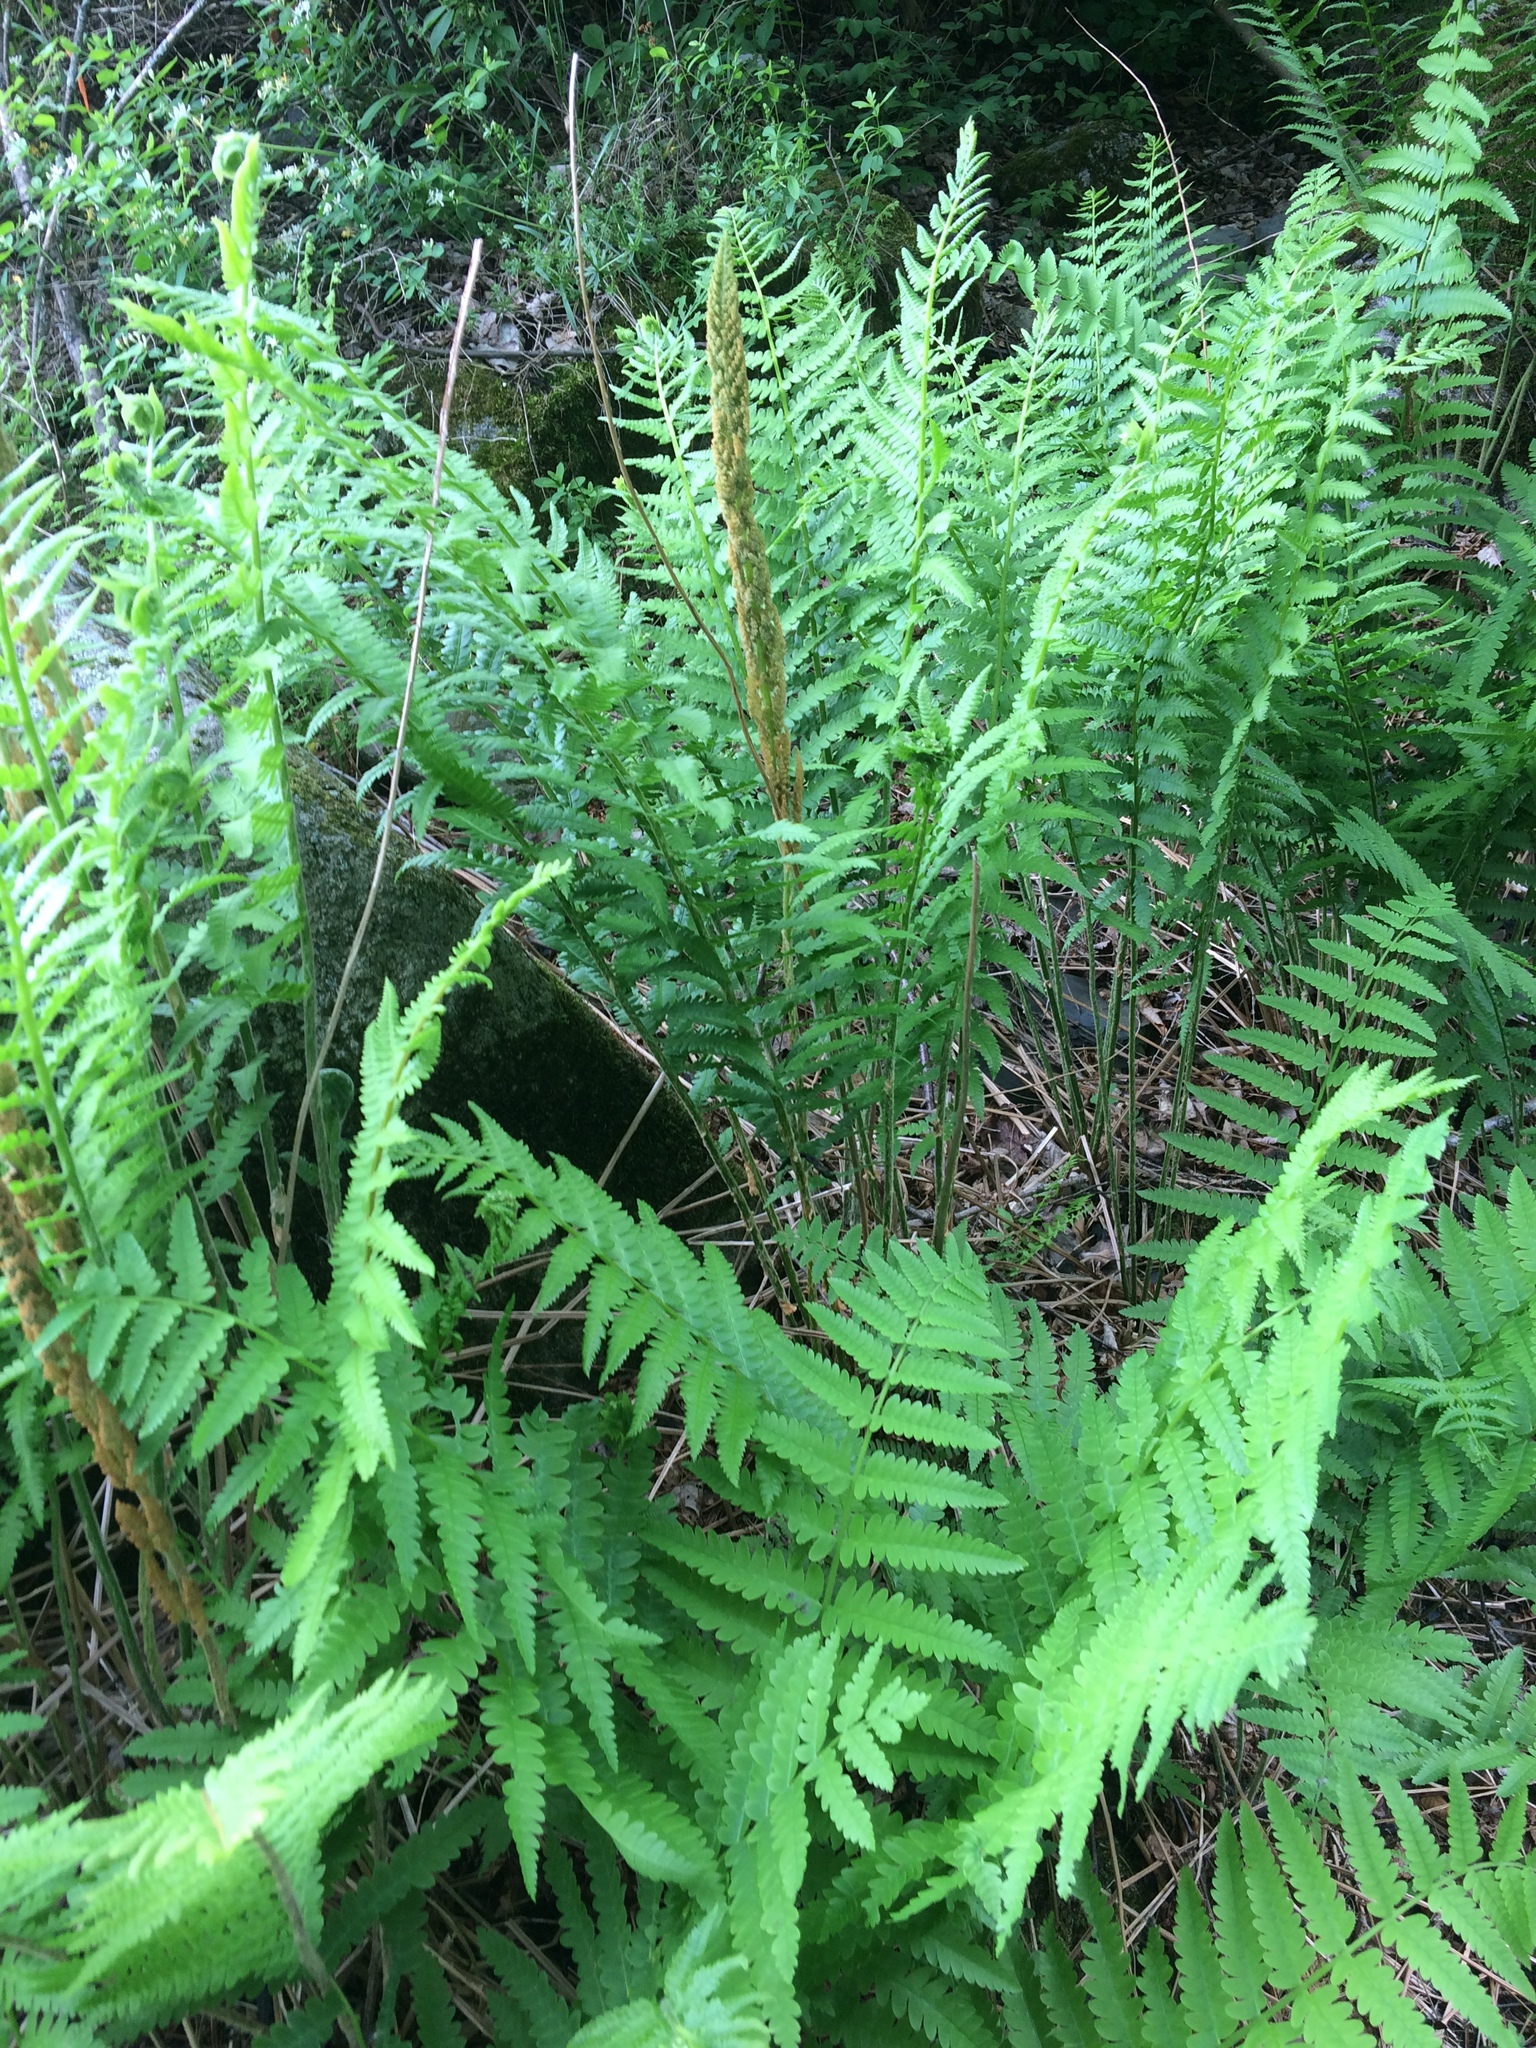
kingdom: Plantae
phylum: Tracheophyta
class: Polypodiopsida
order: Osmundales
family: Osmundaceae
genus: Osmundastrum
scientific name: Osmundastrum cinnamomeum
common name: Cinnamon fern
